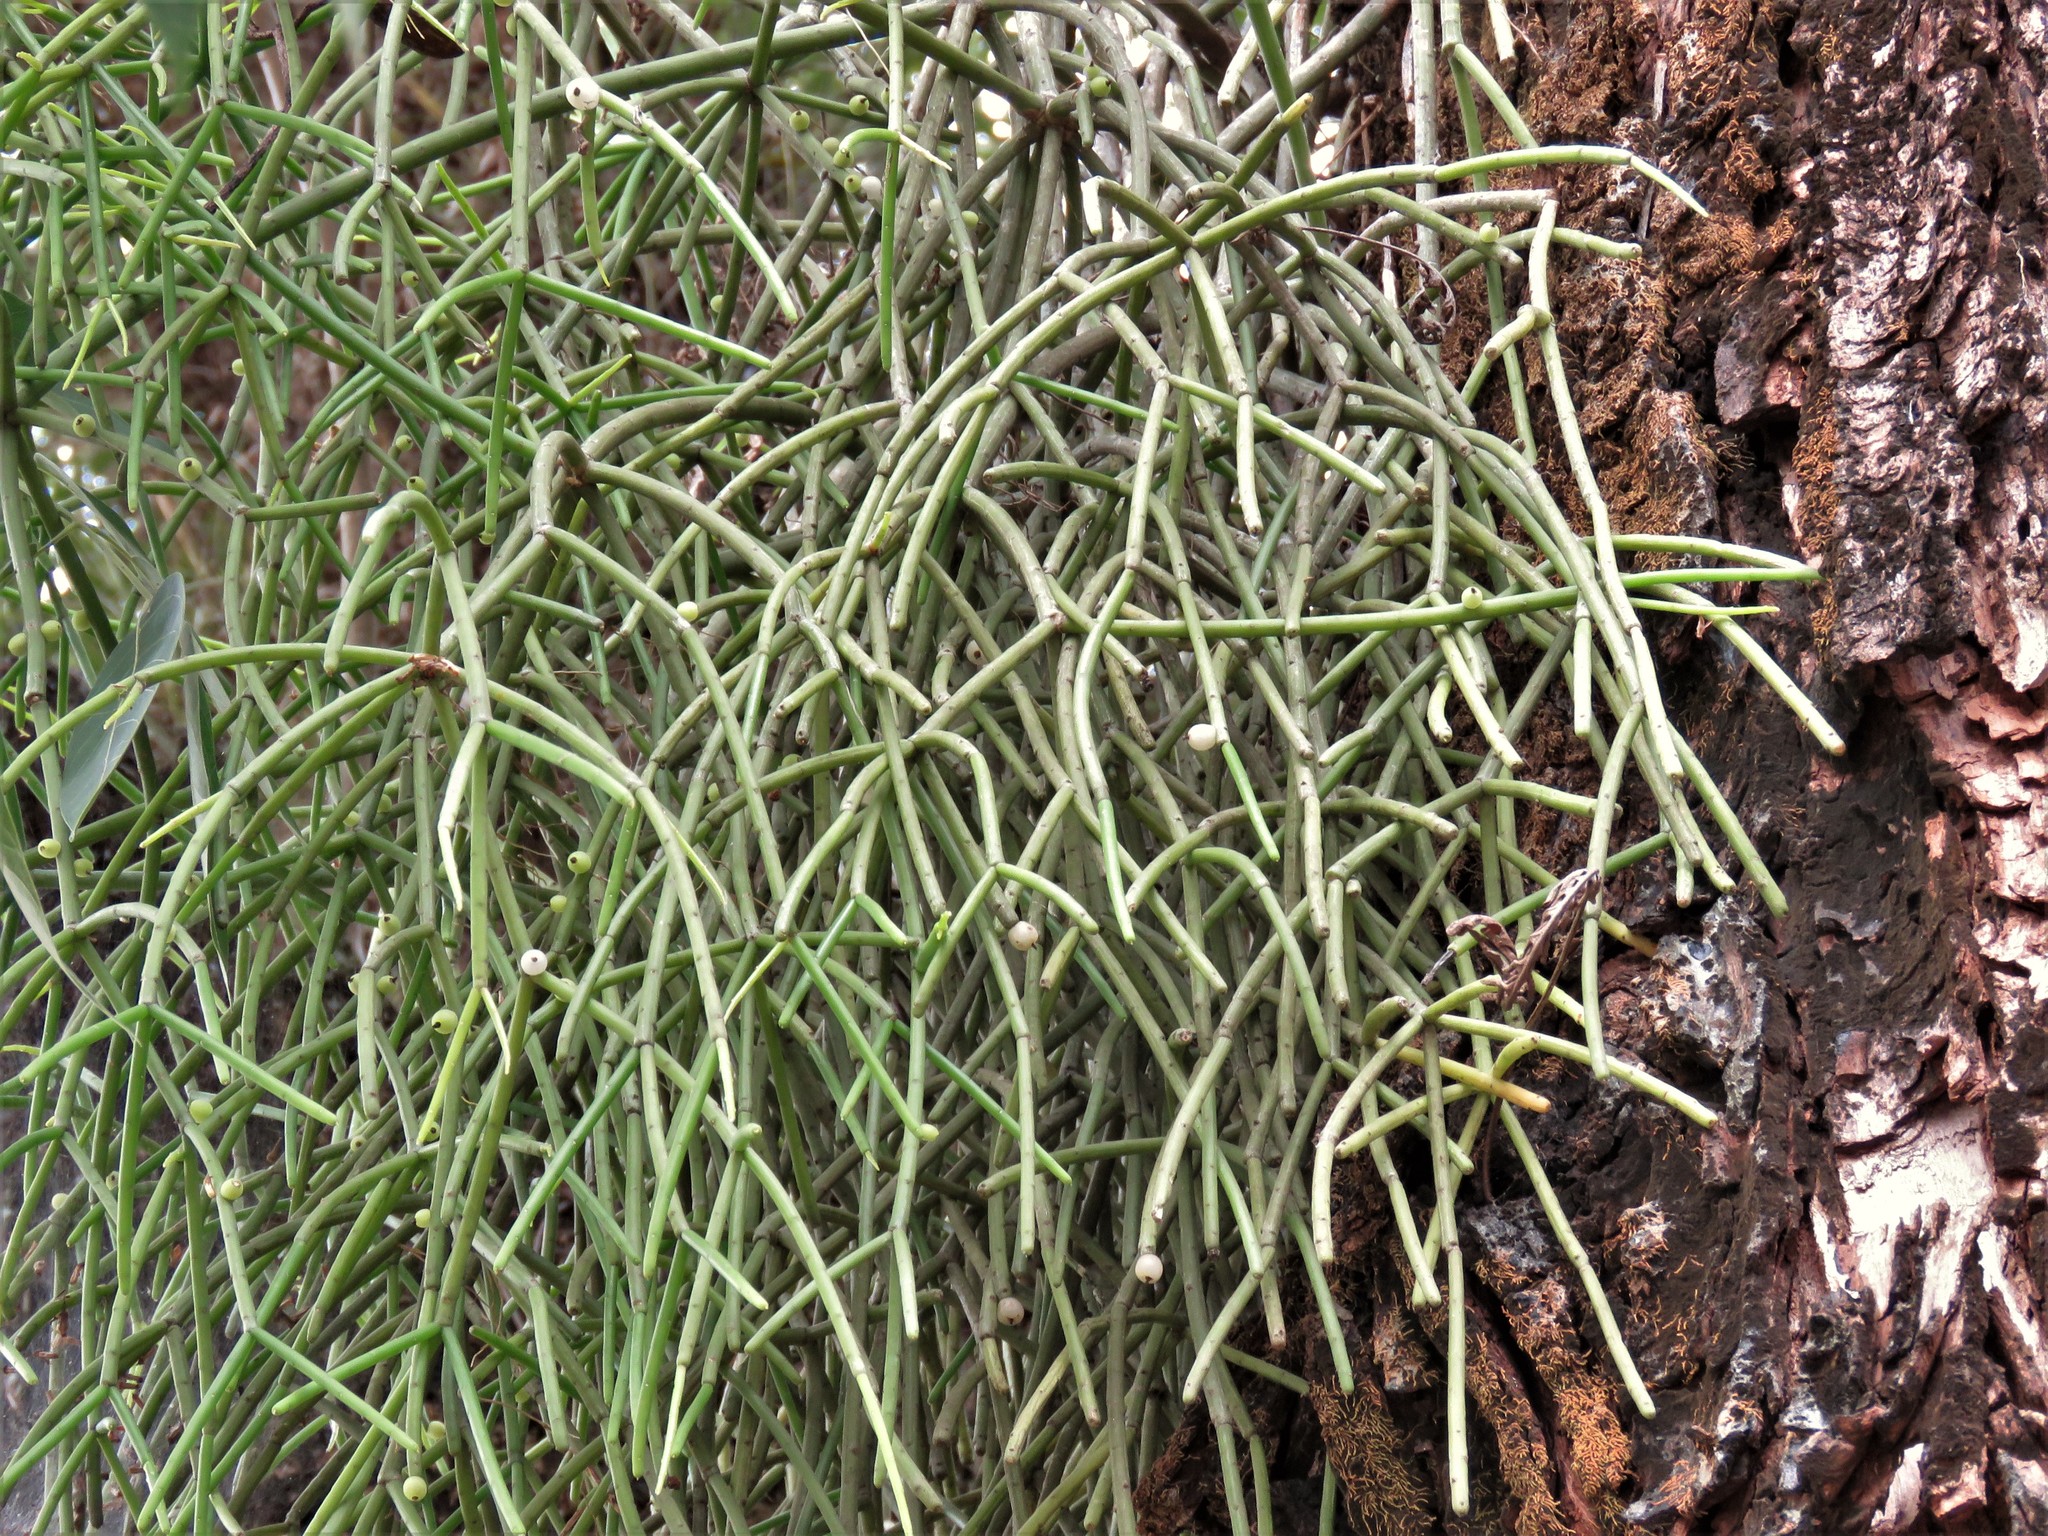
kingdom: Plantae
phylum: Tracheophyta
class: Magnoliopsida
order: Caryophyllales
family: Cactaceae
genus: Rhipsalis
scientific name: Rhipsalis baccifera
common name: Mistletoe cactus
